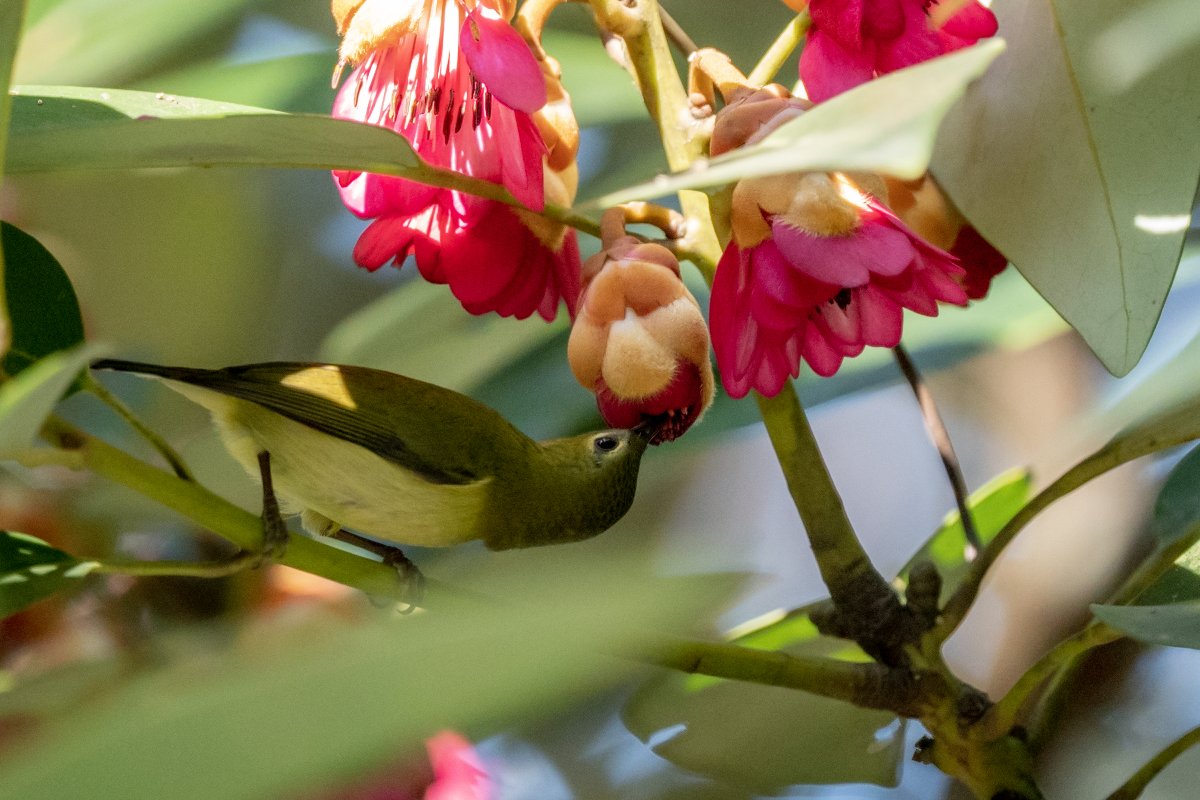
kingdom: Animalia
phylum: Chordata
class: Aves
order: Passeriformes
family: Nectariniidae
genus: Aethopyga
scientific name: Aethopyga christinae
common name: Fork-tailed sunbird
